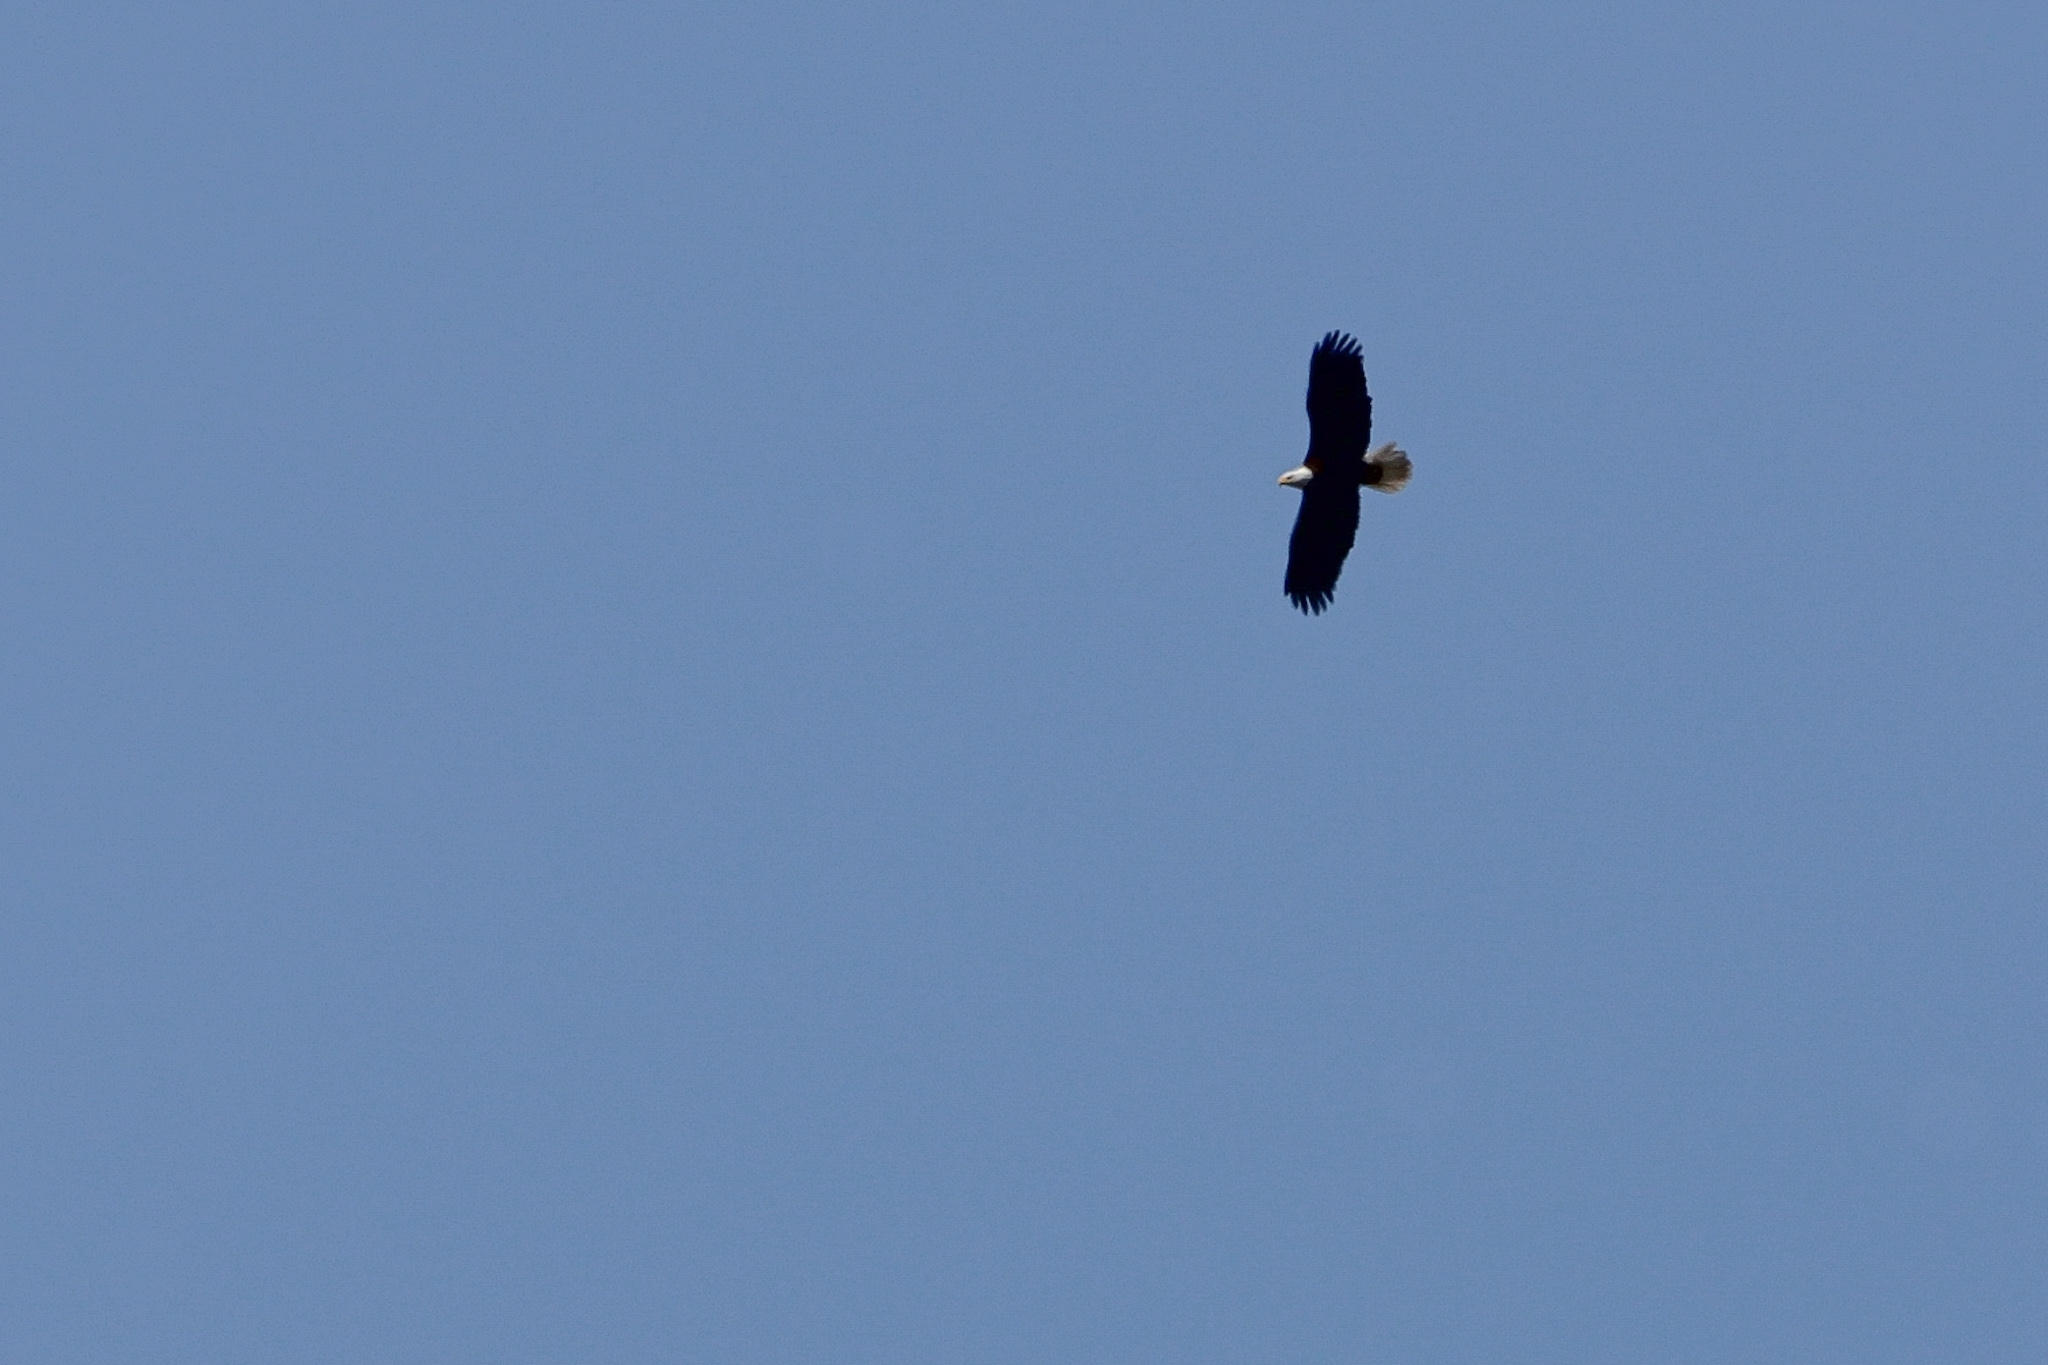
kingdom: Animalia
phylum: Chordata
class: Aves
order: Accipitriformes
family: Accipitridae
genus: Haliaeetus
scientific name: Haliaeetus leucocephalus
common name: Bald eagle
